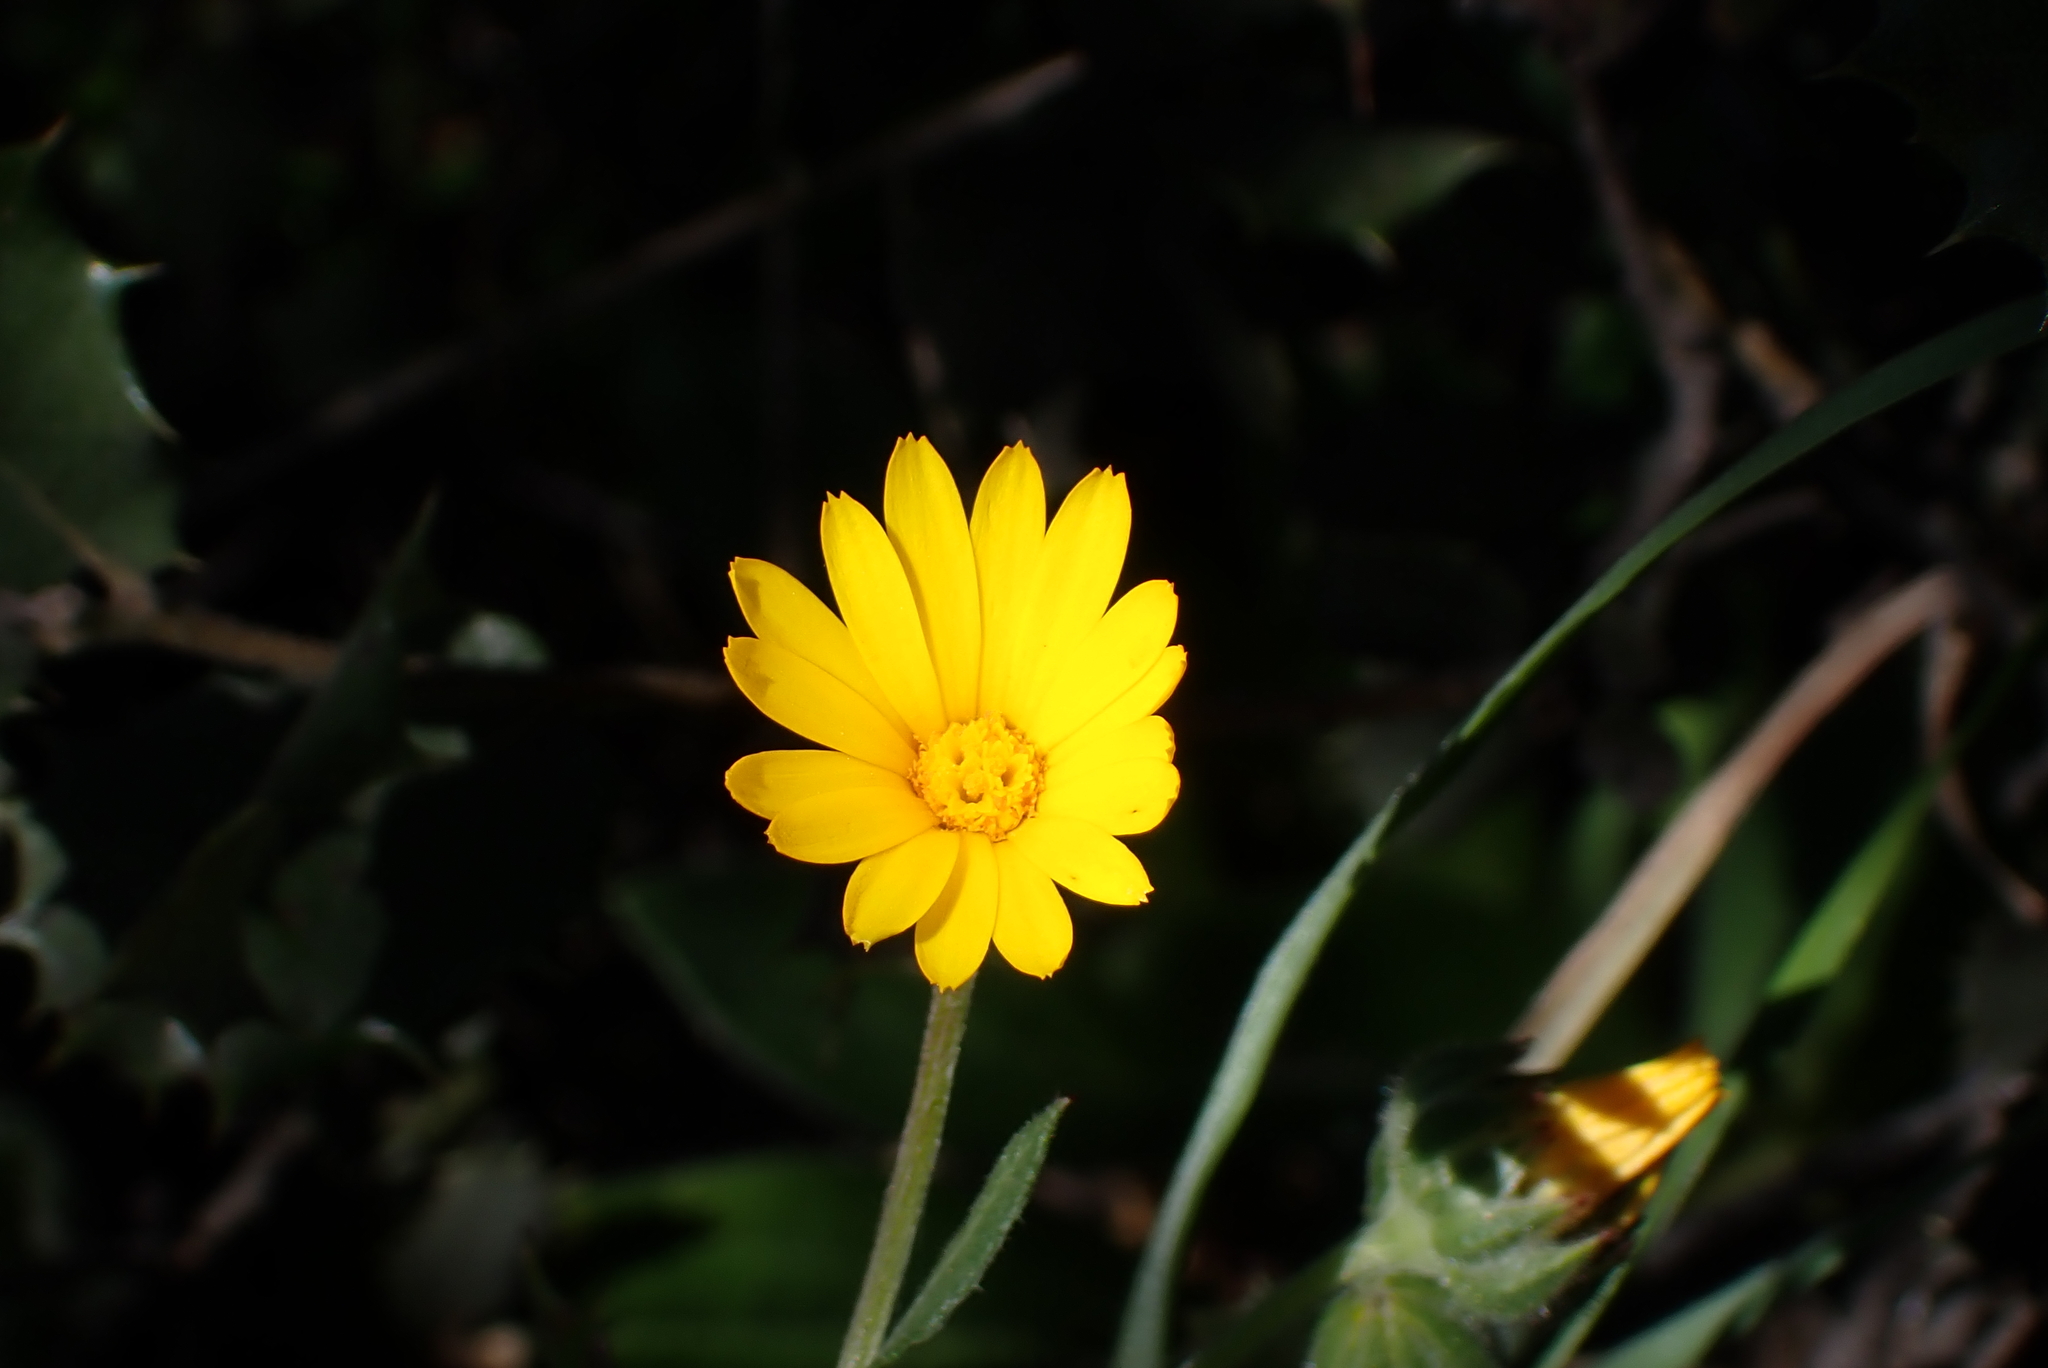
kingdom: Plantae
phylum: Tracheophyta
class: Magnoliopsida
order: Asterales
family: Asteraceae
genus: Calendula
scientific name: Calendula arvensis
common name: Field marigold
